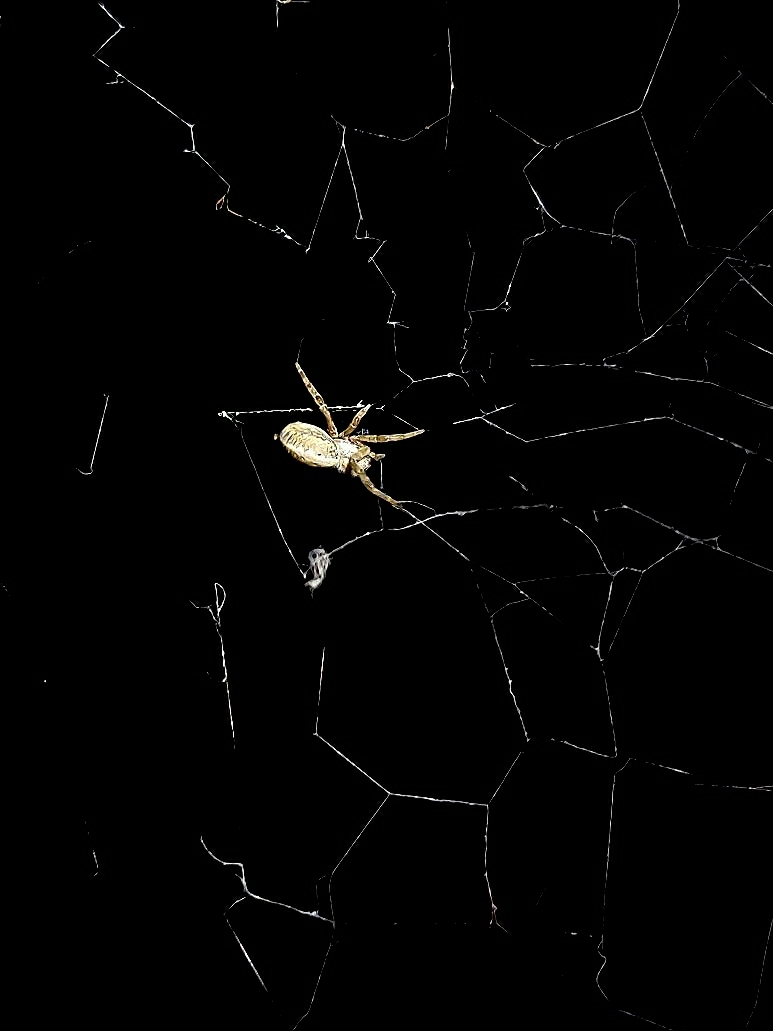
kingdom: Animalia
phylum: Arthropoda
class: Arachnida
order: Araneae
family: Eresidae
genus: Stegodyphus
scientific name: Stegodyphus sarasinorum
